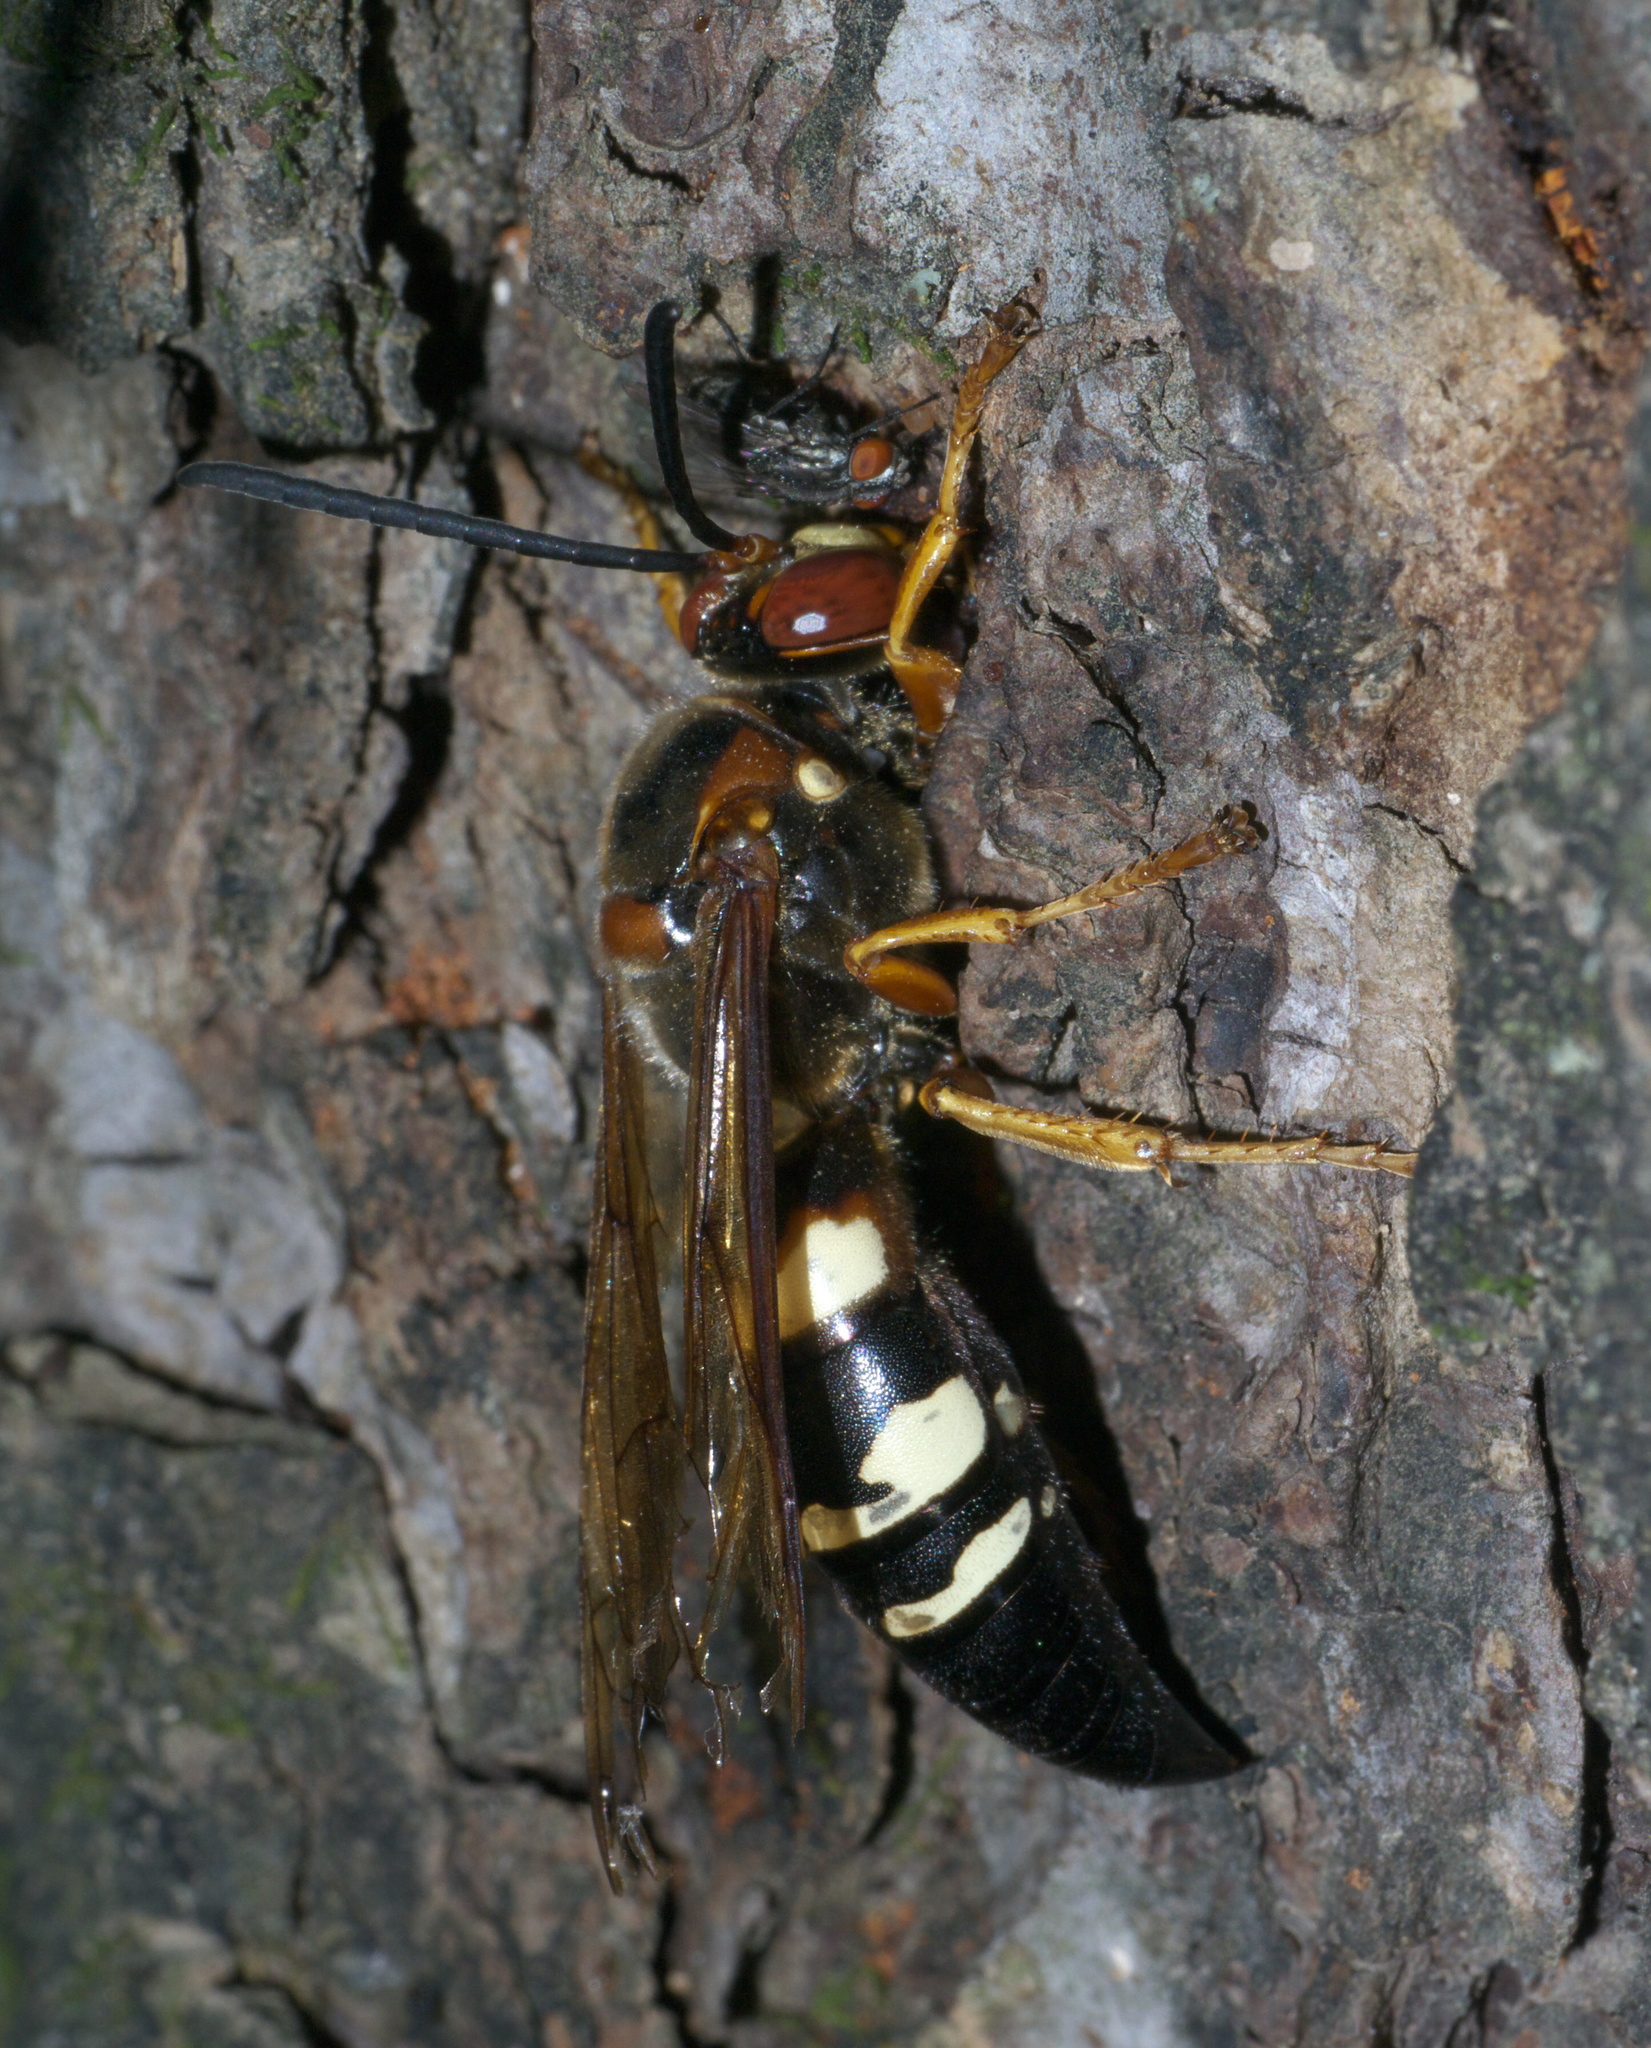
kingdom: Animalia
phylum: Arthropoda
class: Insecta
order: Hymenoptera
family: Crabronidae
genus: Sphecius
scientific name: Sphecius speciosus
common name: Cicada killer
